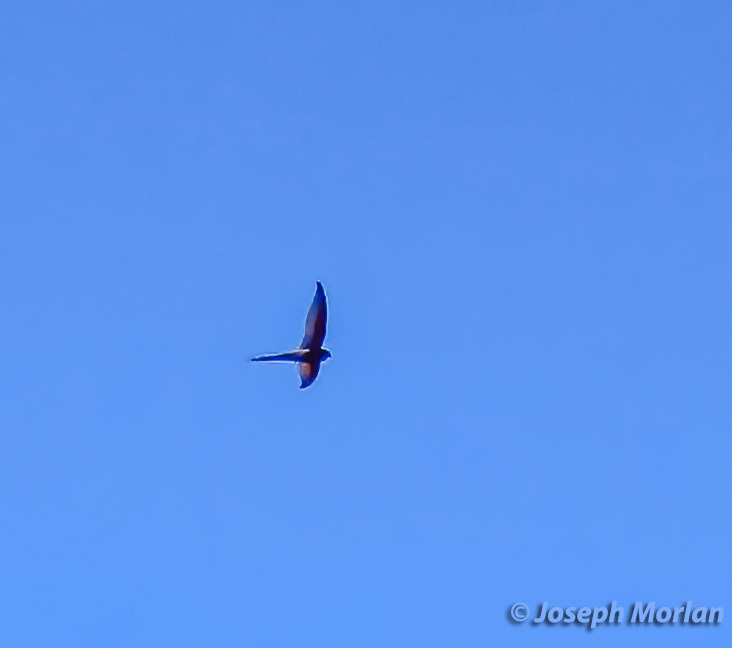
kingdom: Animalia
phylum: Chordata
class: Aves
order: Apodiformes
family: Apodidae
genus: Cypsiurus
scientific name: Cypsiurus parvus
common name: African palm swift
